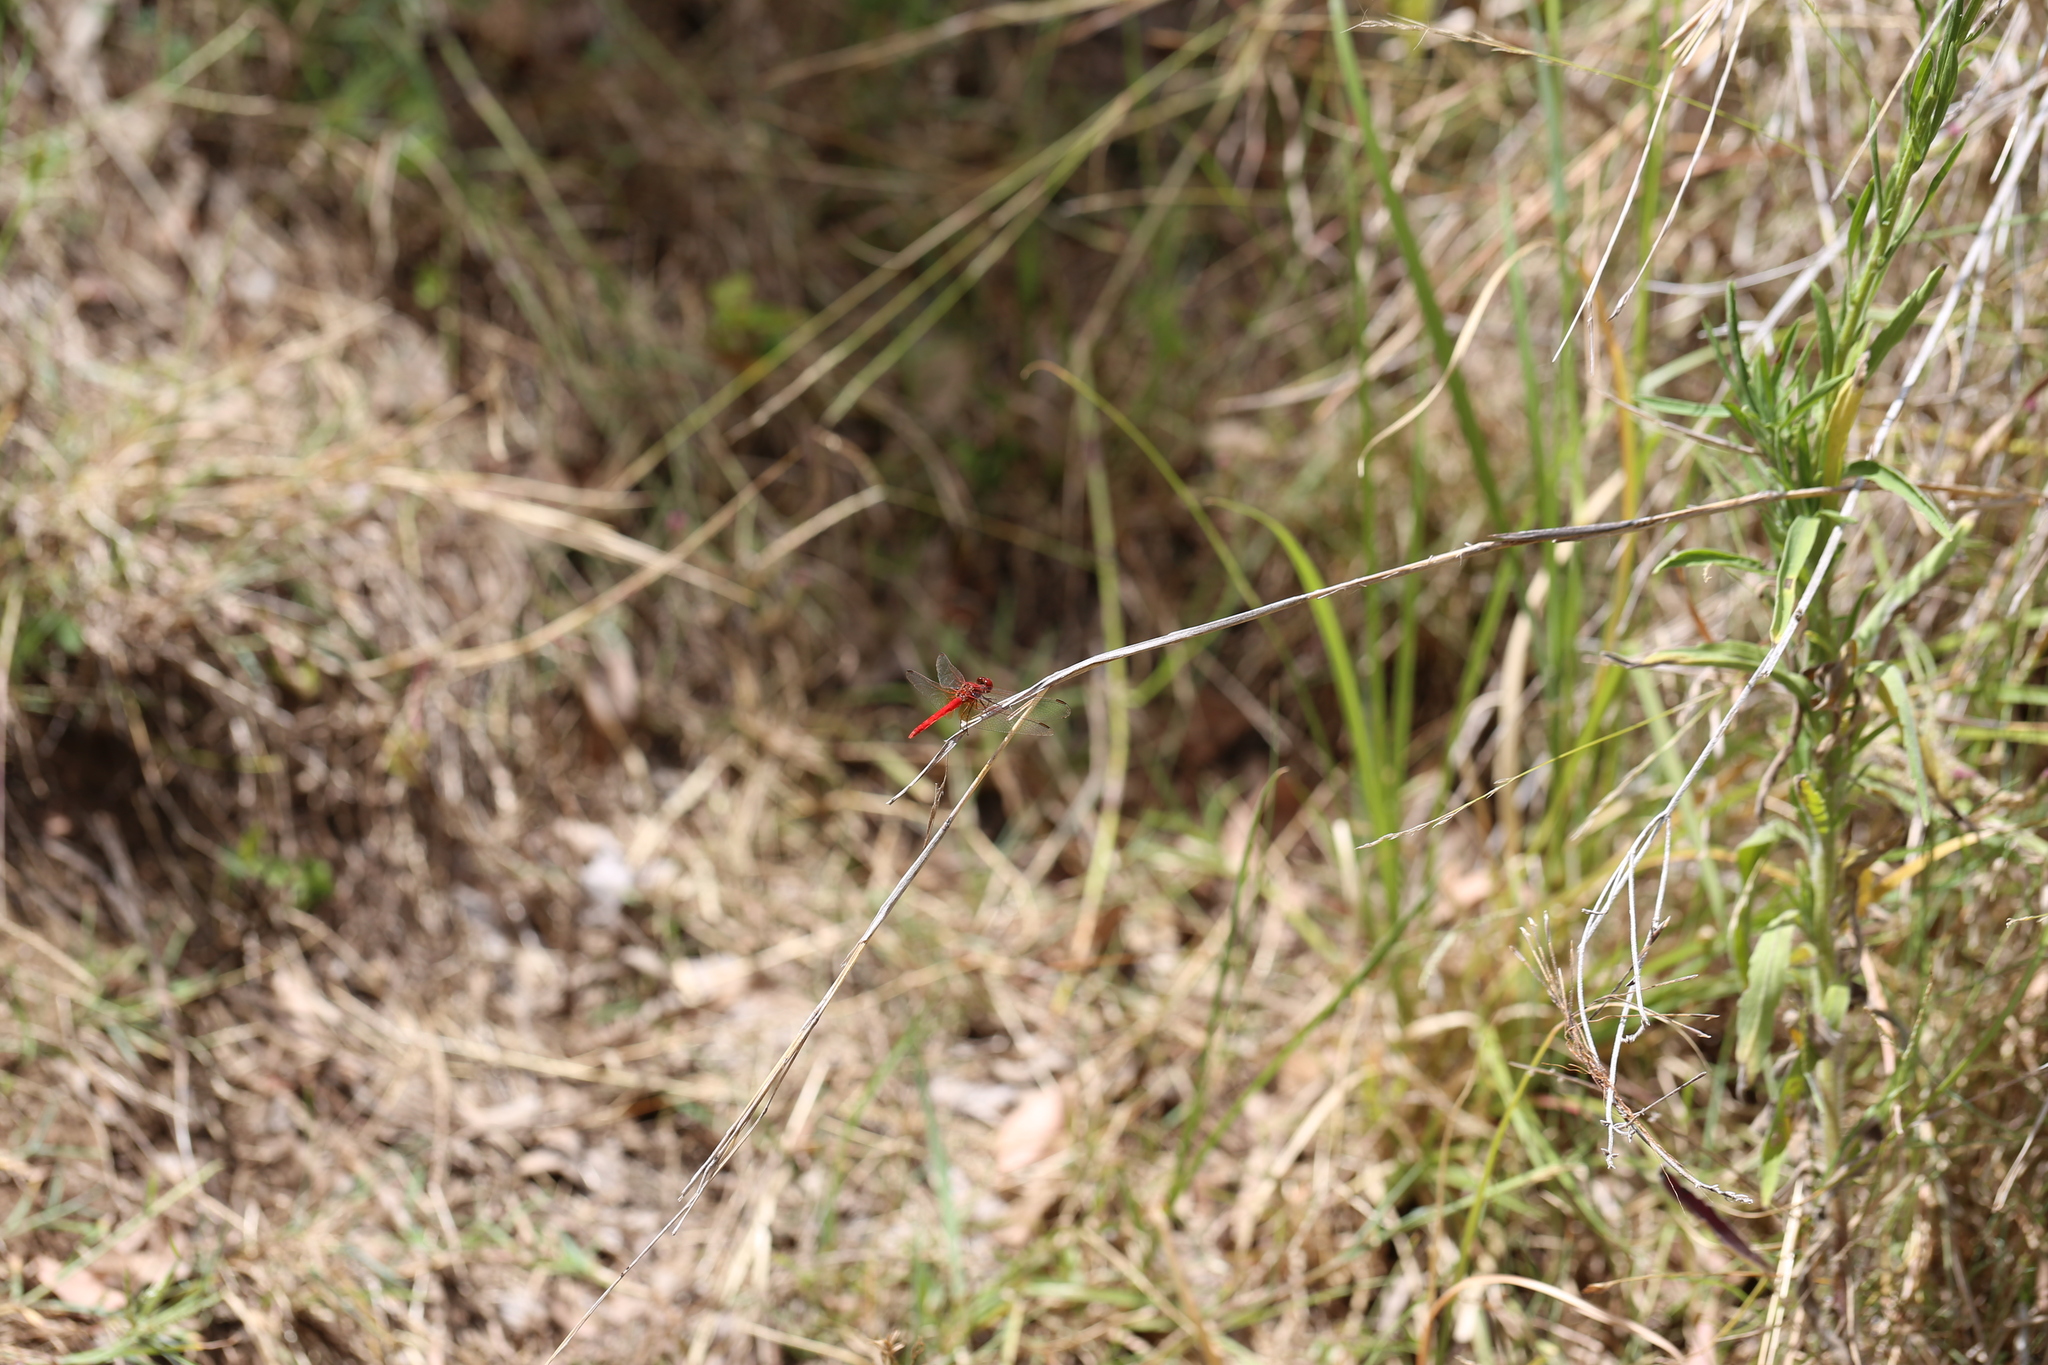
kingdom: Animalia
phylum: Arthropoda
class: Insecta
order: Odonata
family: Libellulidae
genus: Diplacodes
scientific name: Diplacodes haematodes
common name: Scarlet percher
